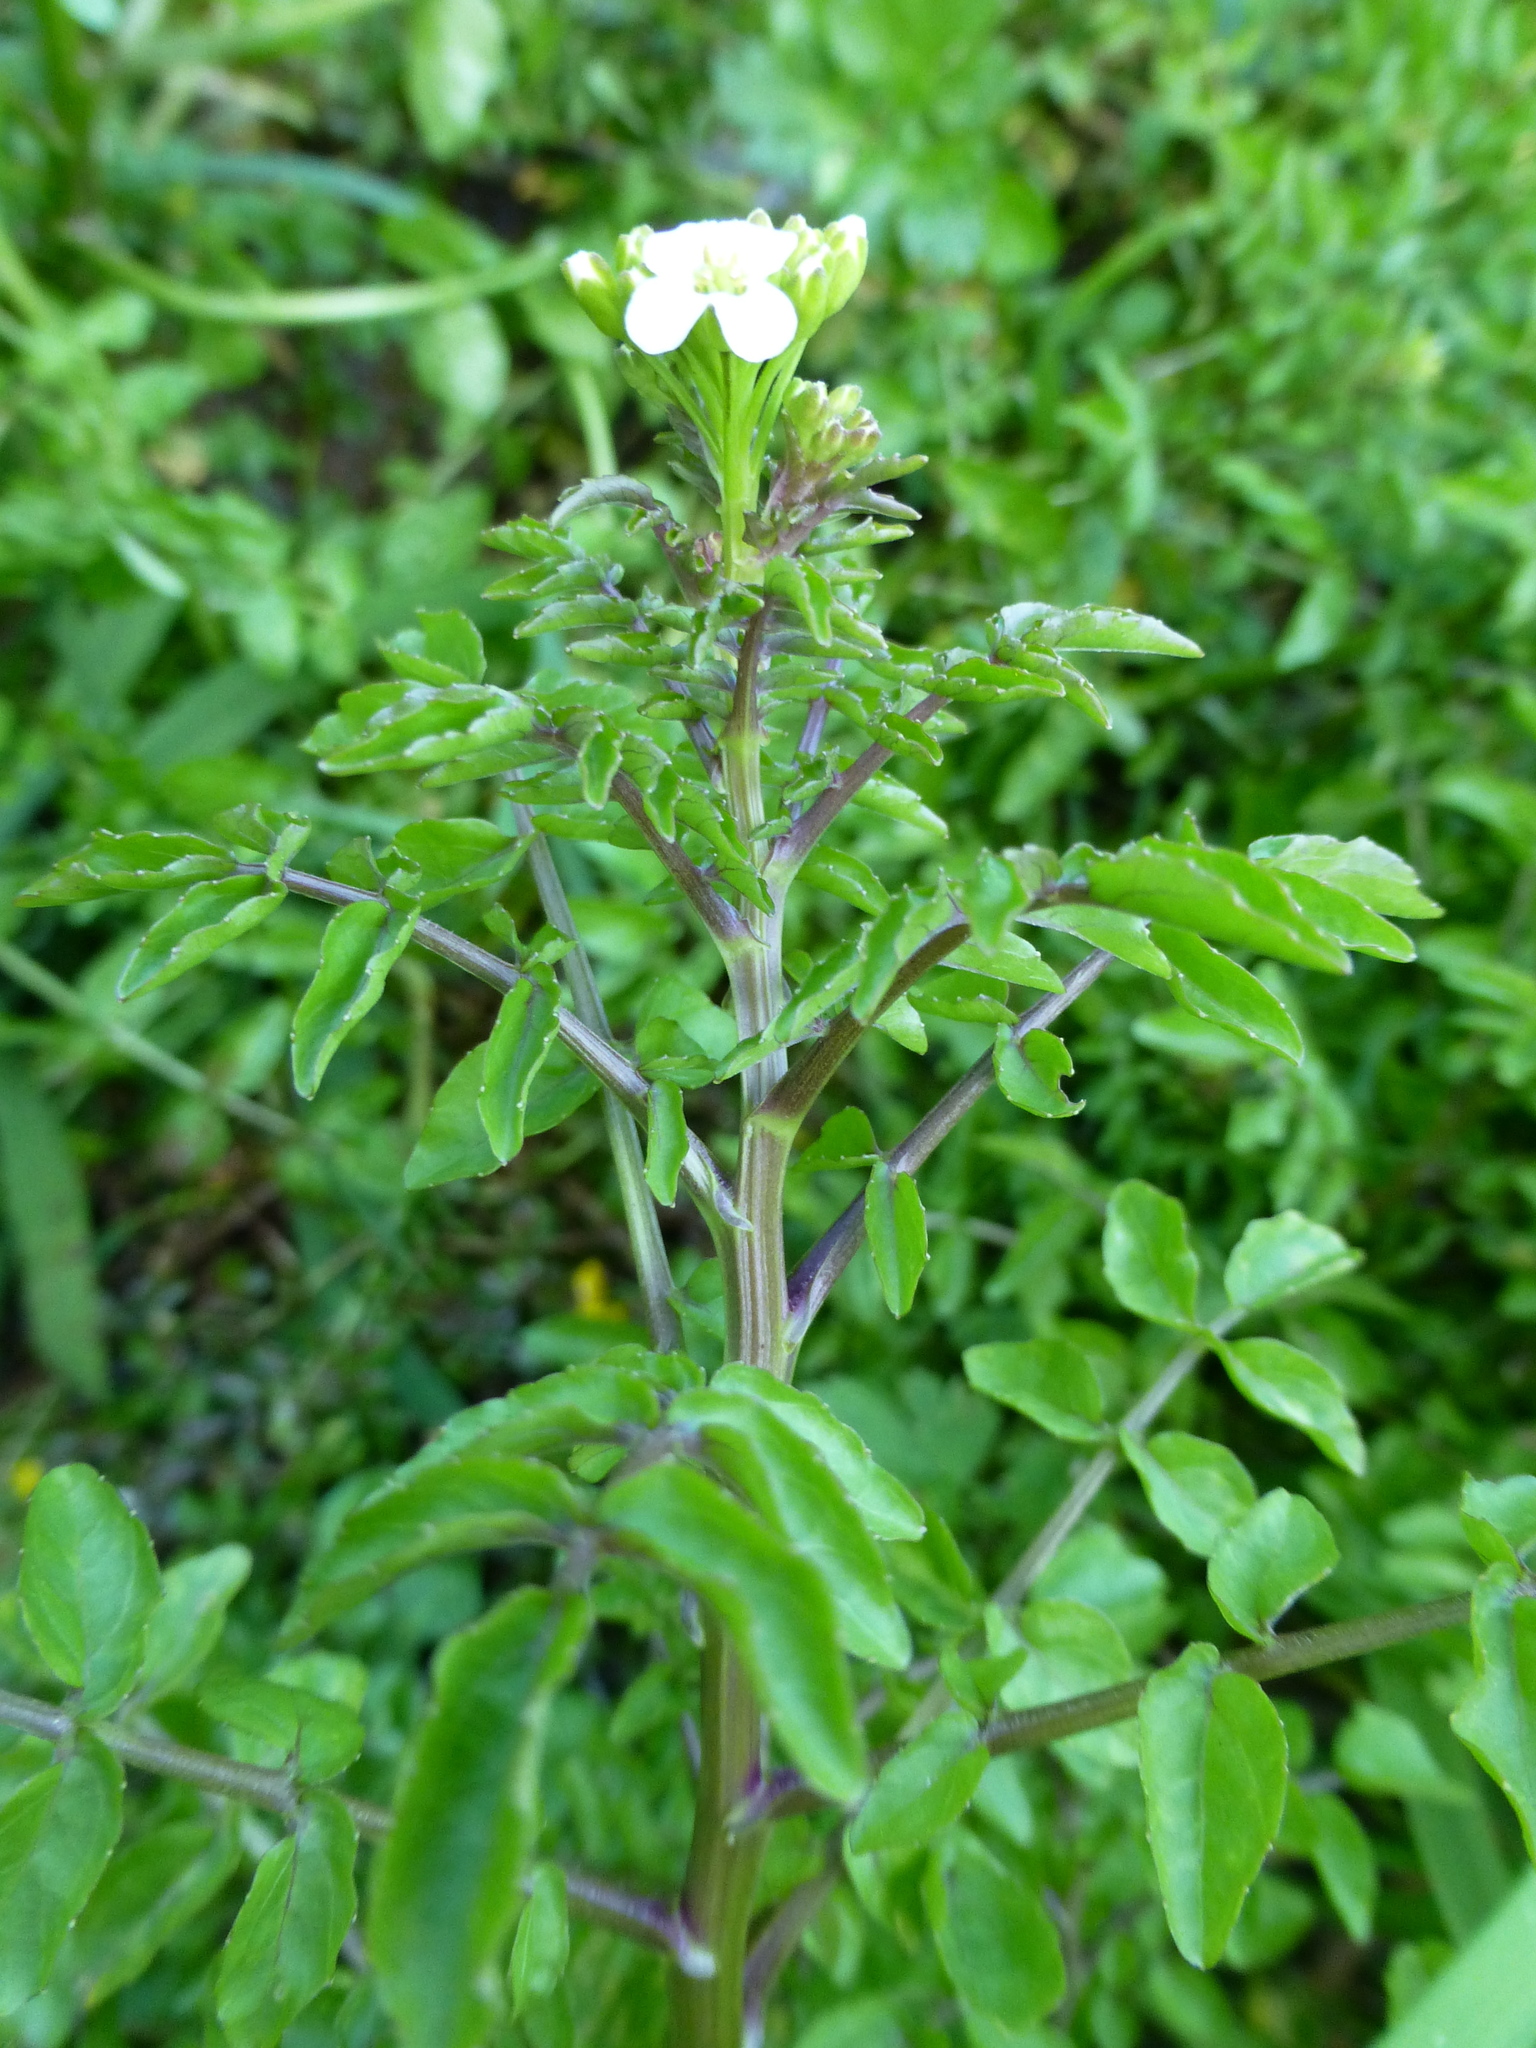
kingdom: Plantae
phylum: Tracheophyta
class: Magnoliopsida
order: Brassicales
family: Brassicaceae
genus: Nasturtium
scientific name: Nasturtium officinale
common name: Watercress
